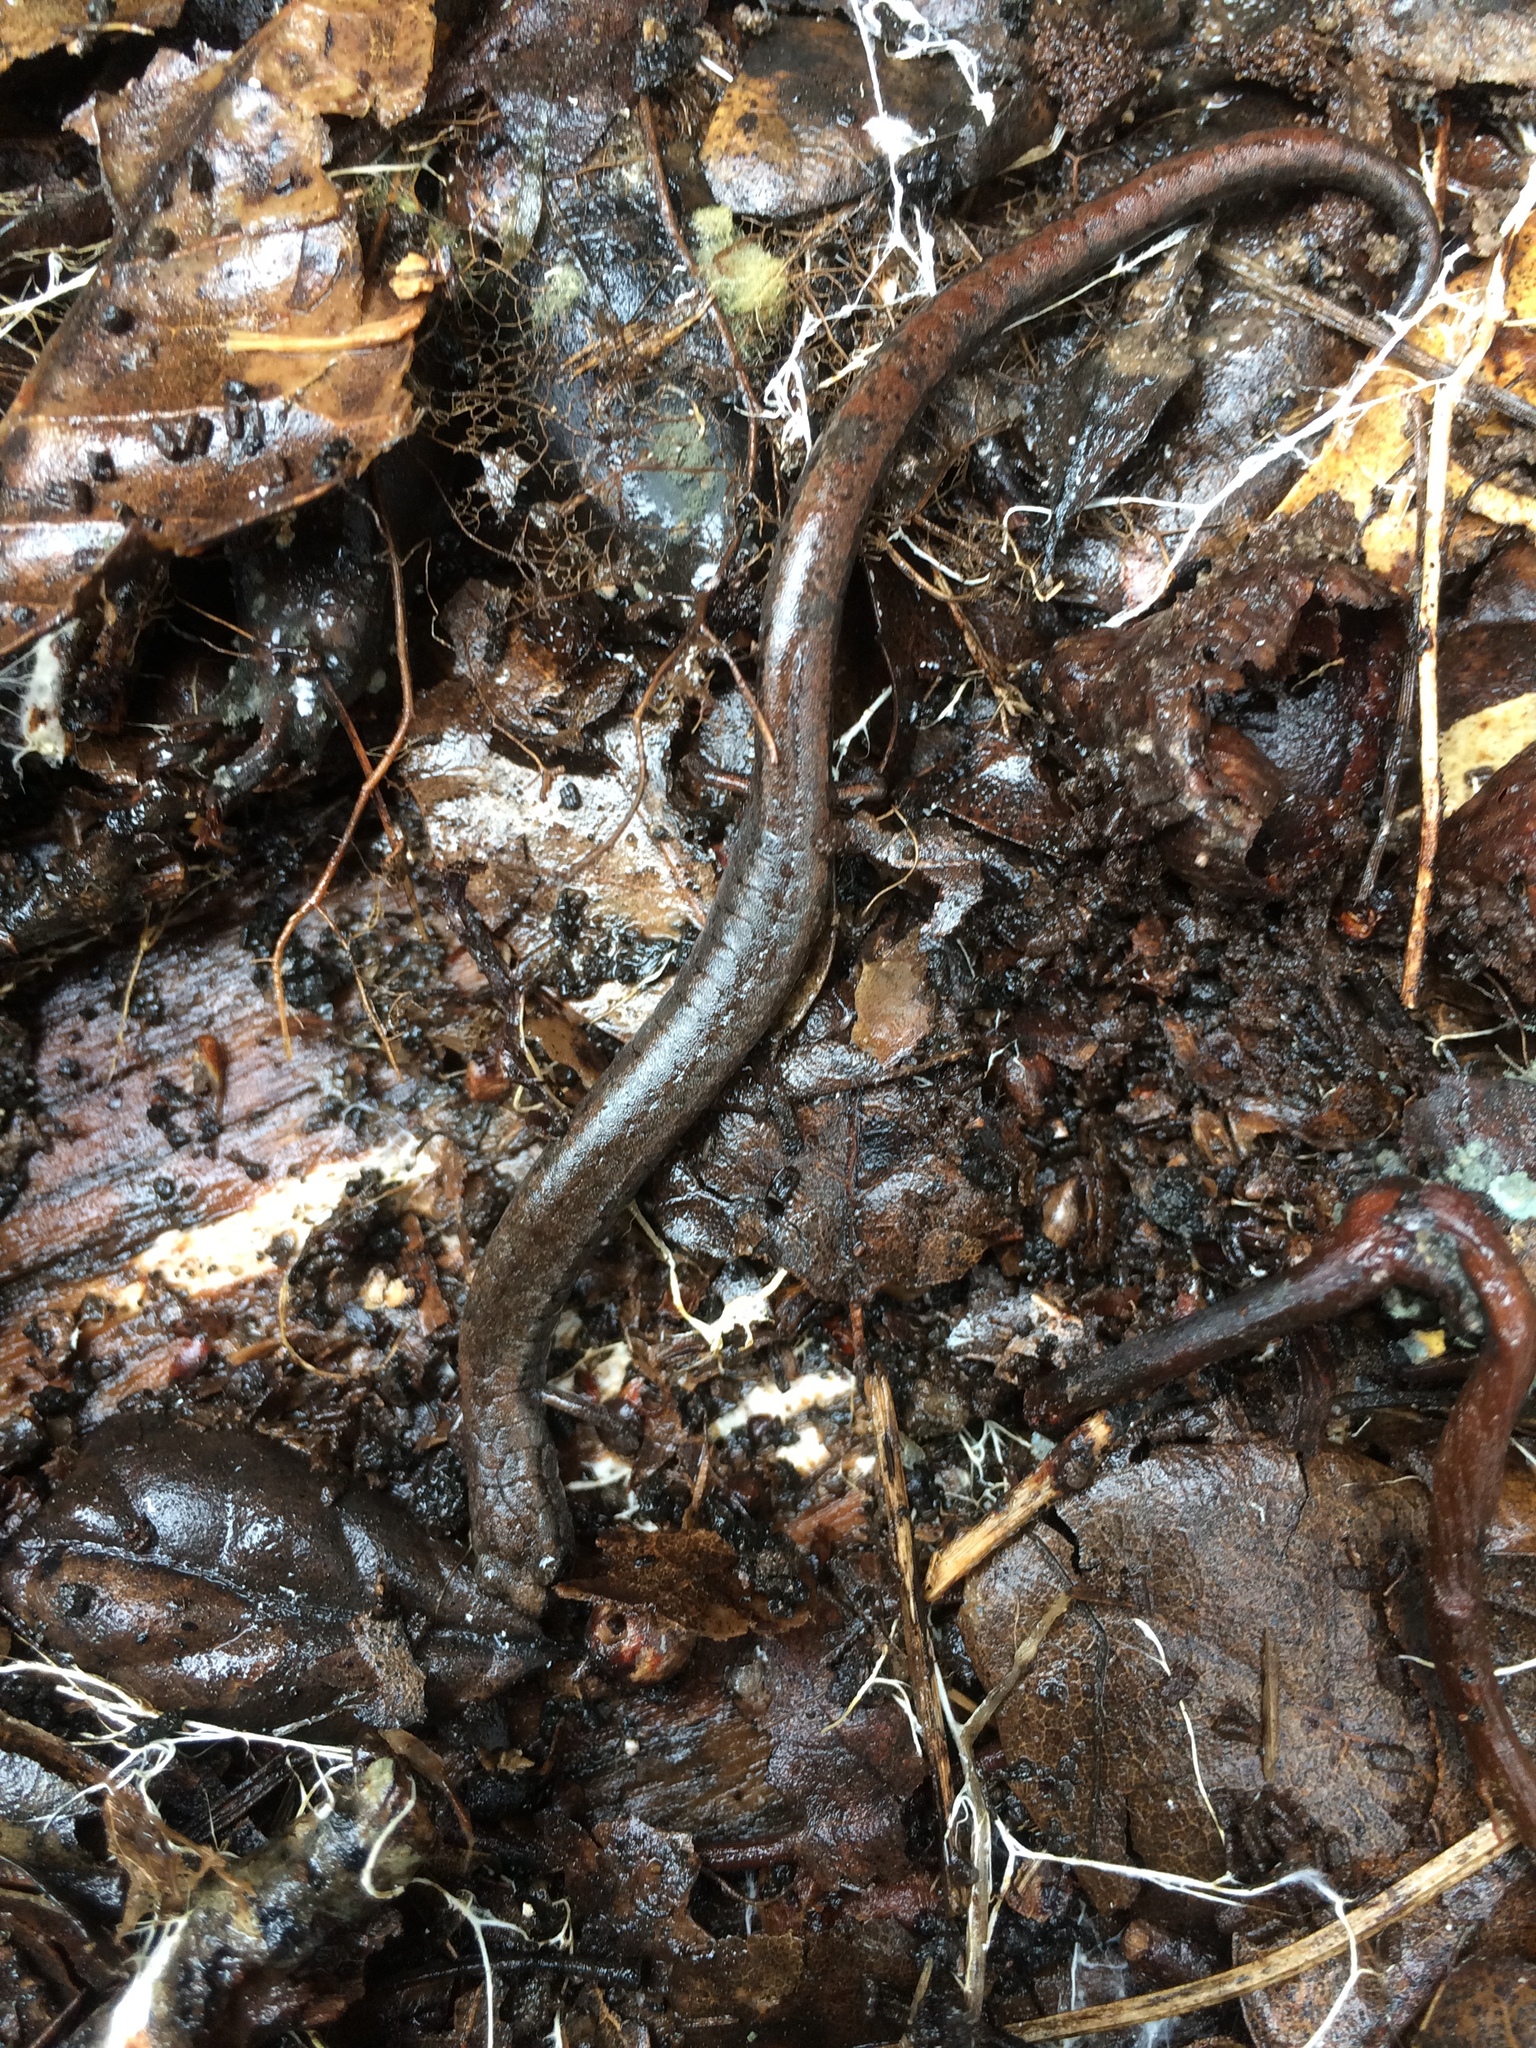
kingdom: Animalia
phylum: Chordata
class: Amphibia
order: Caudata
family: Plethodontidae
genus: Batrachoseps
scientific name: Batrachoseps attenuatus
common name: California slender salamander
